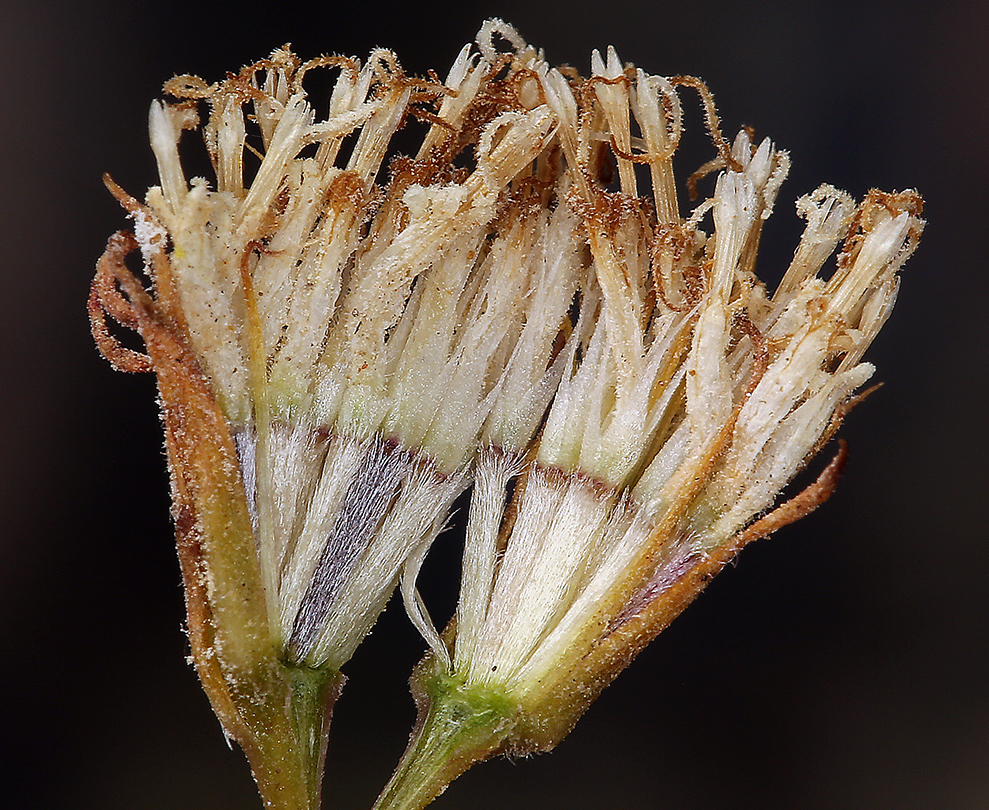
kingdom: Plantae
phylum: Tracheophyta
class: Magnoliopsida
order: Asterales
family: Asteraceae
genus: Chaenactis
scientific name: Chaenactis carphoclinia
